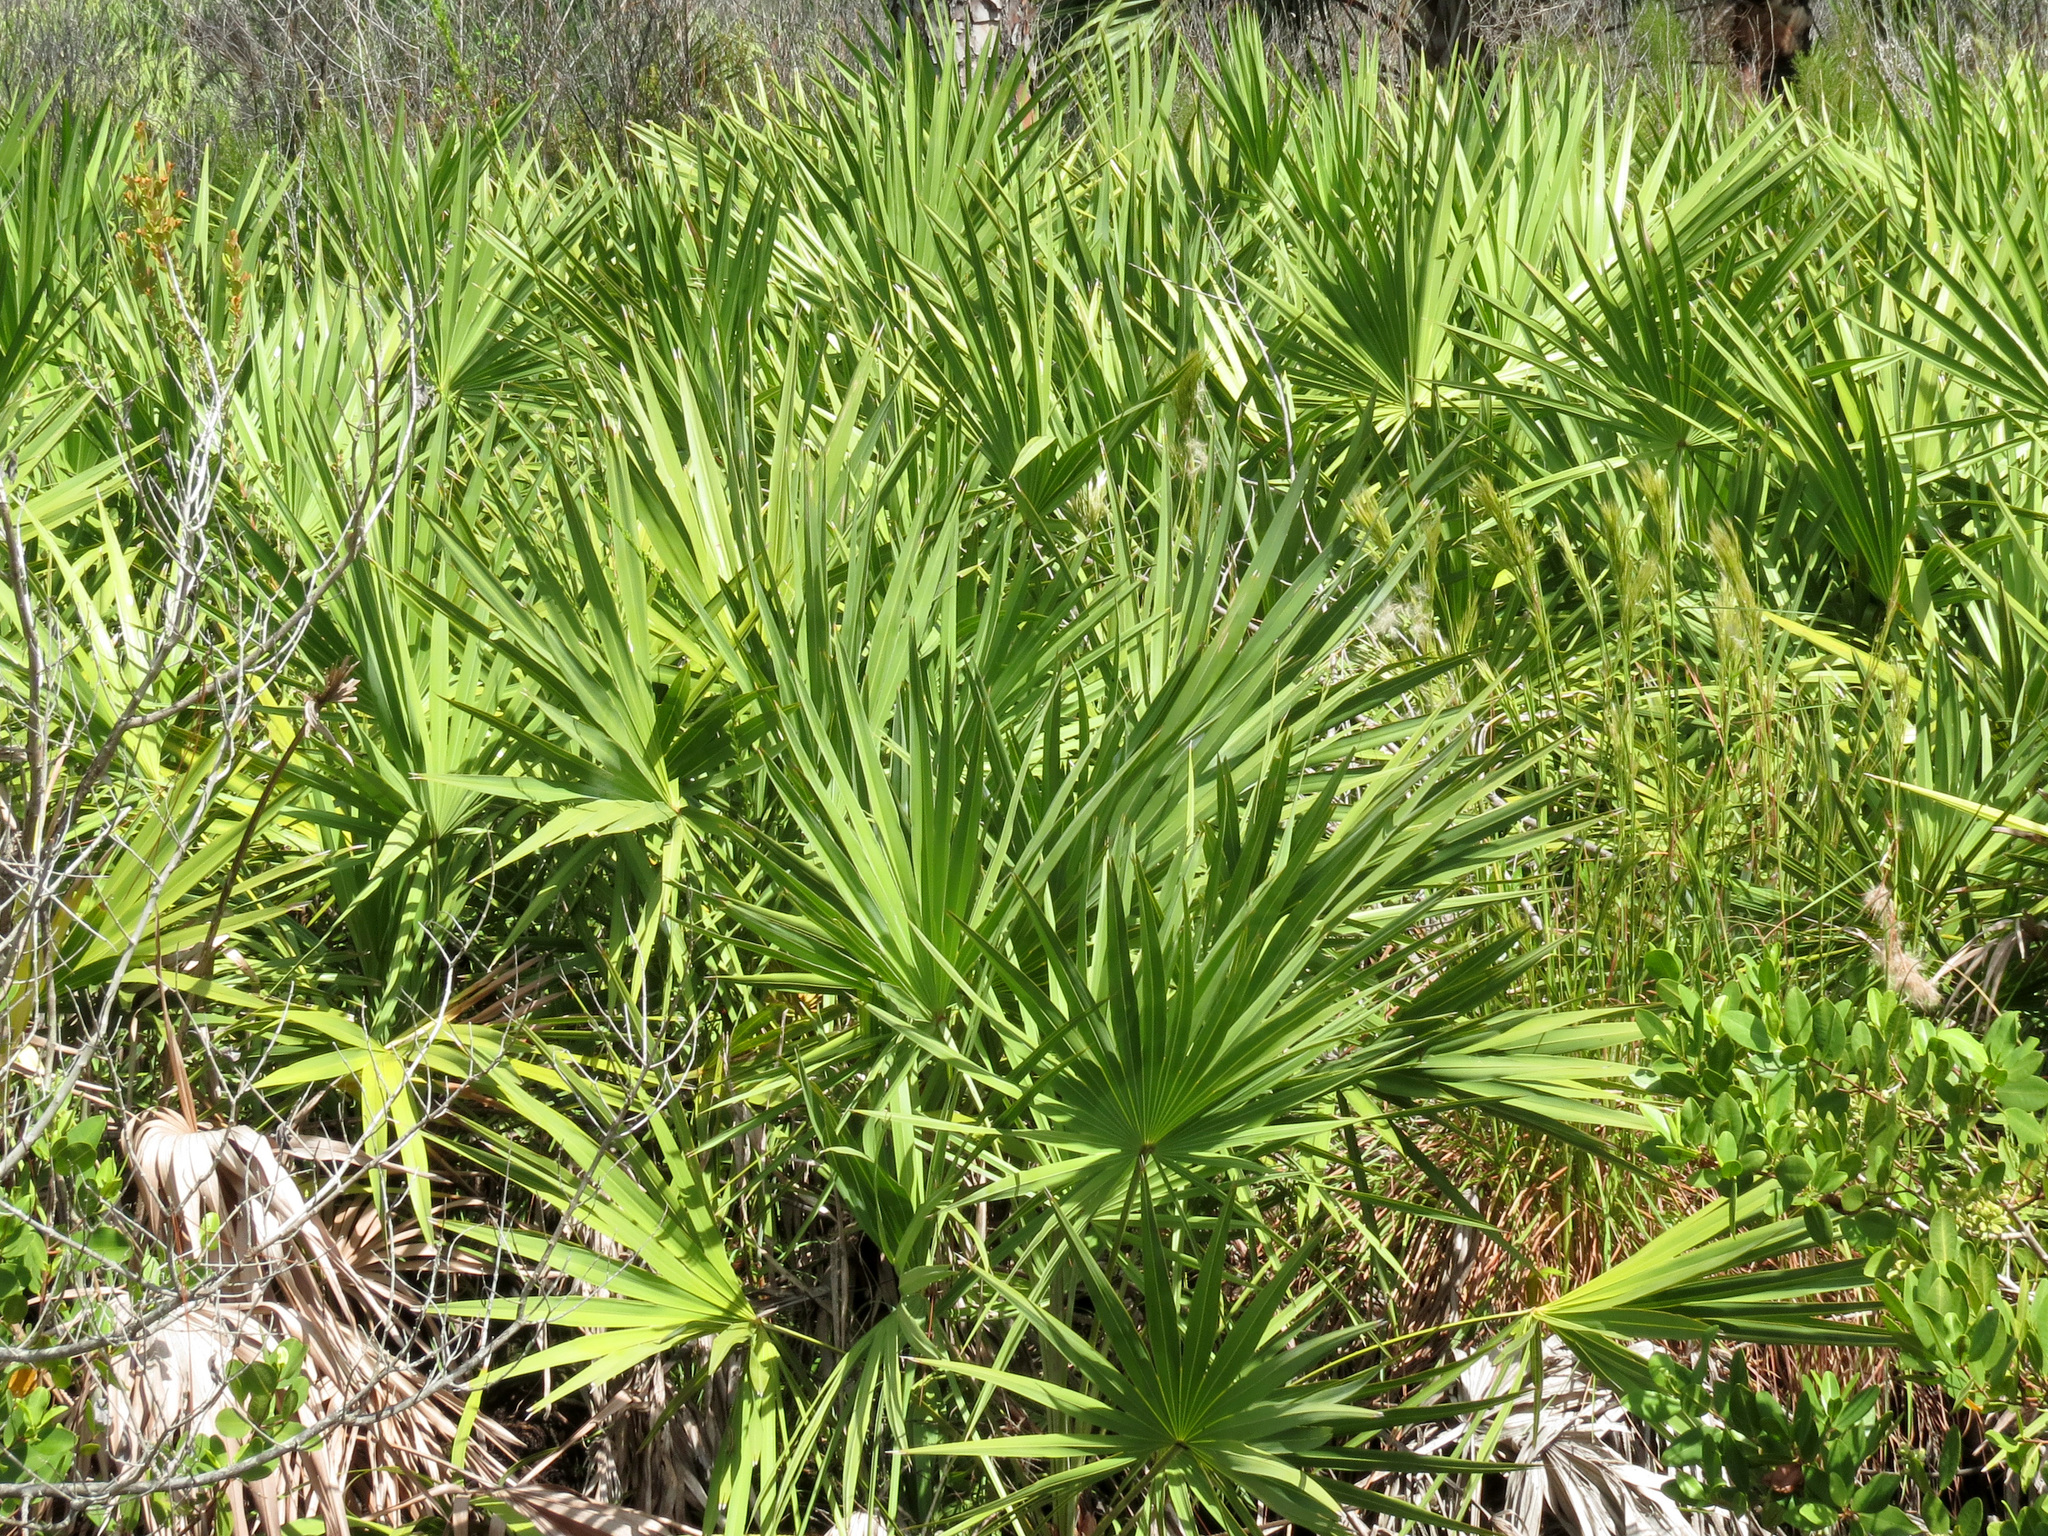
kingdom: Plantae
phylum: Tracheophyta
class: Liliopsida
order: Arecales
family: Arecaceae
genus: Serenoa
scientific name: Serenoa repens
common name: Saw-palmetto
